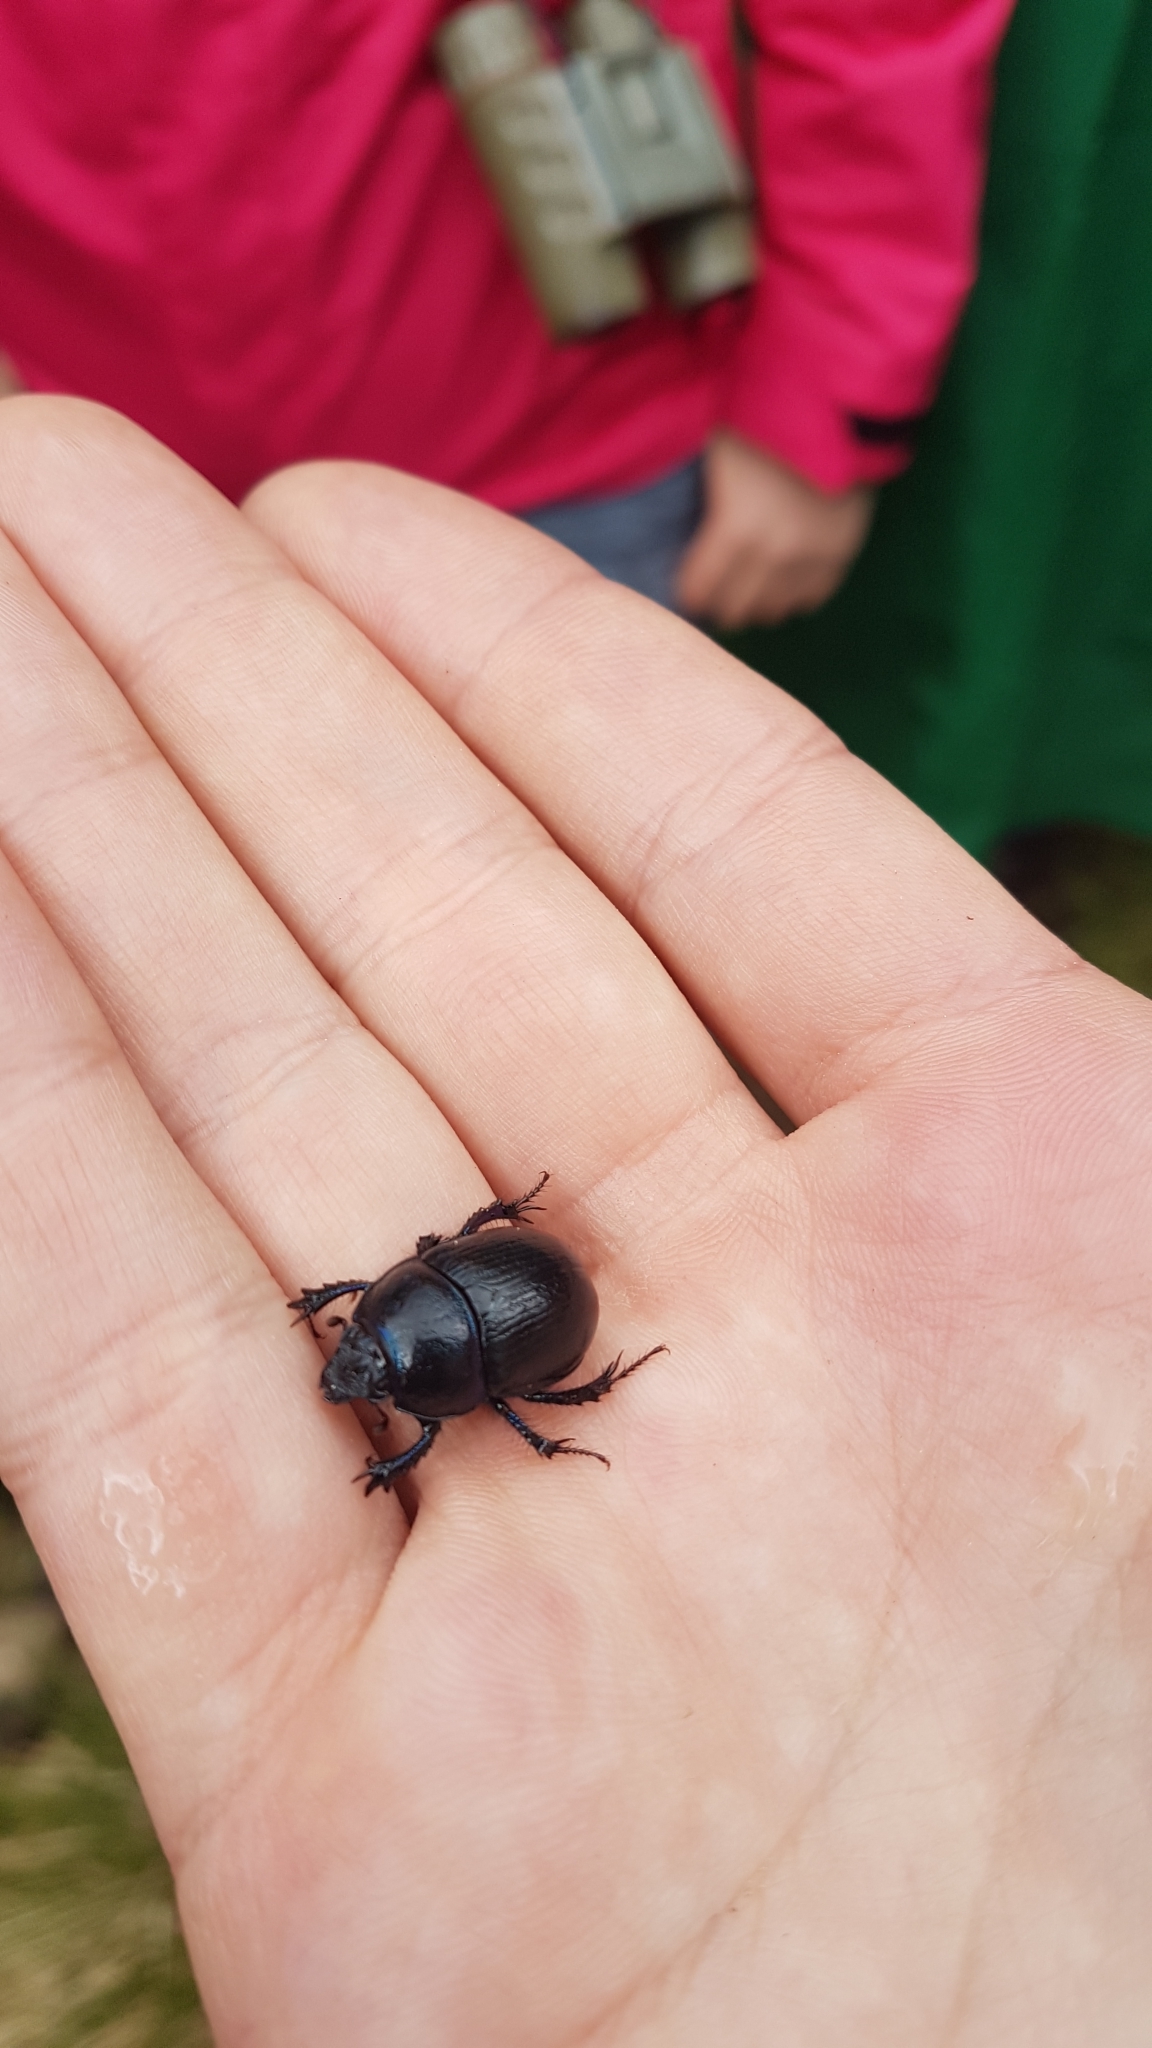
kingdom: Animalia
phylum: Arthropoda
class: Insecta
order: Coleoptera
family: Geotrupidae
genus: Anoplotrupes
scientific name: Anoplotrupes stercorosus
